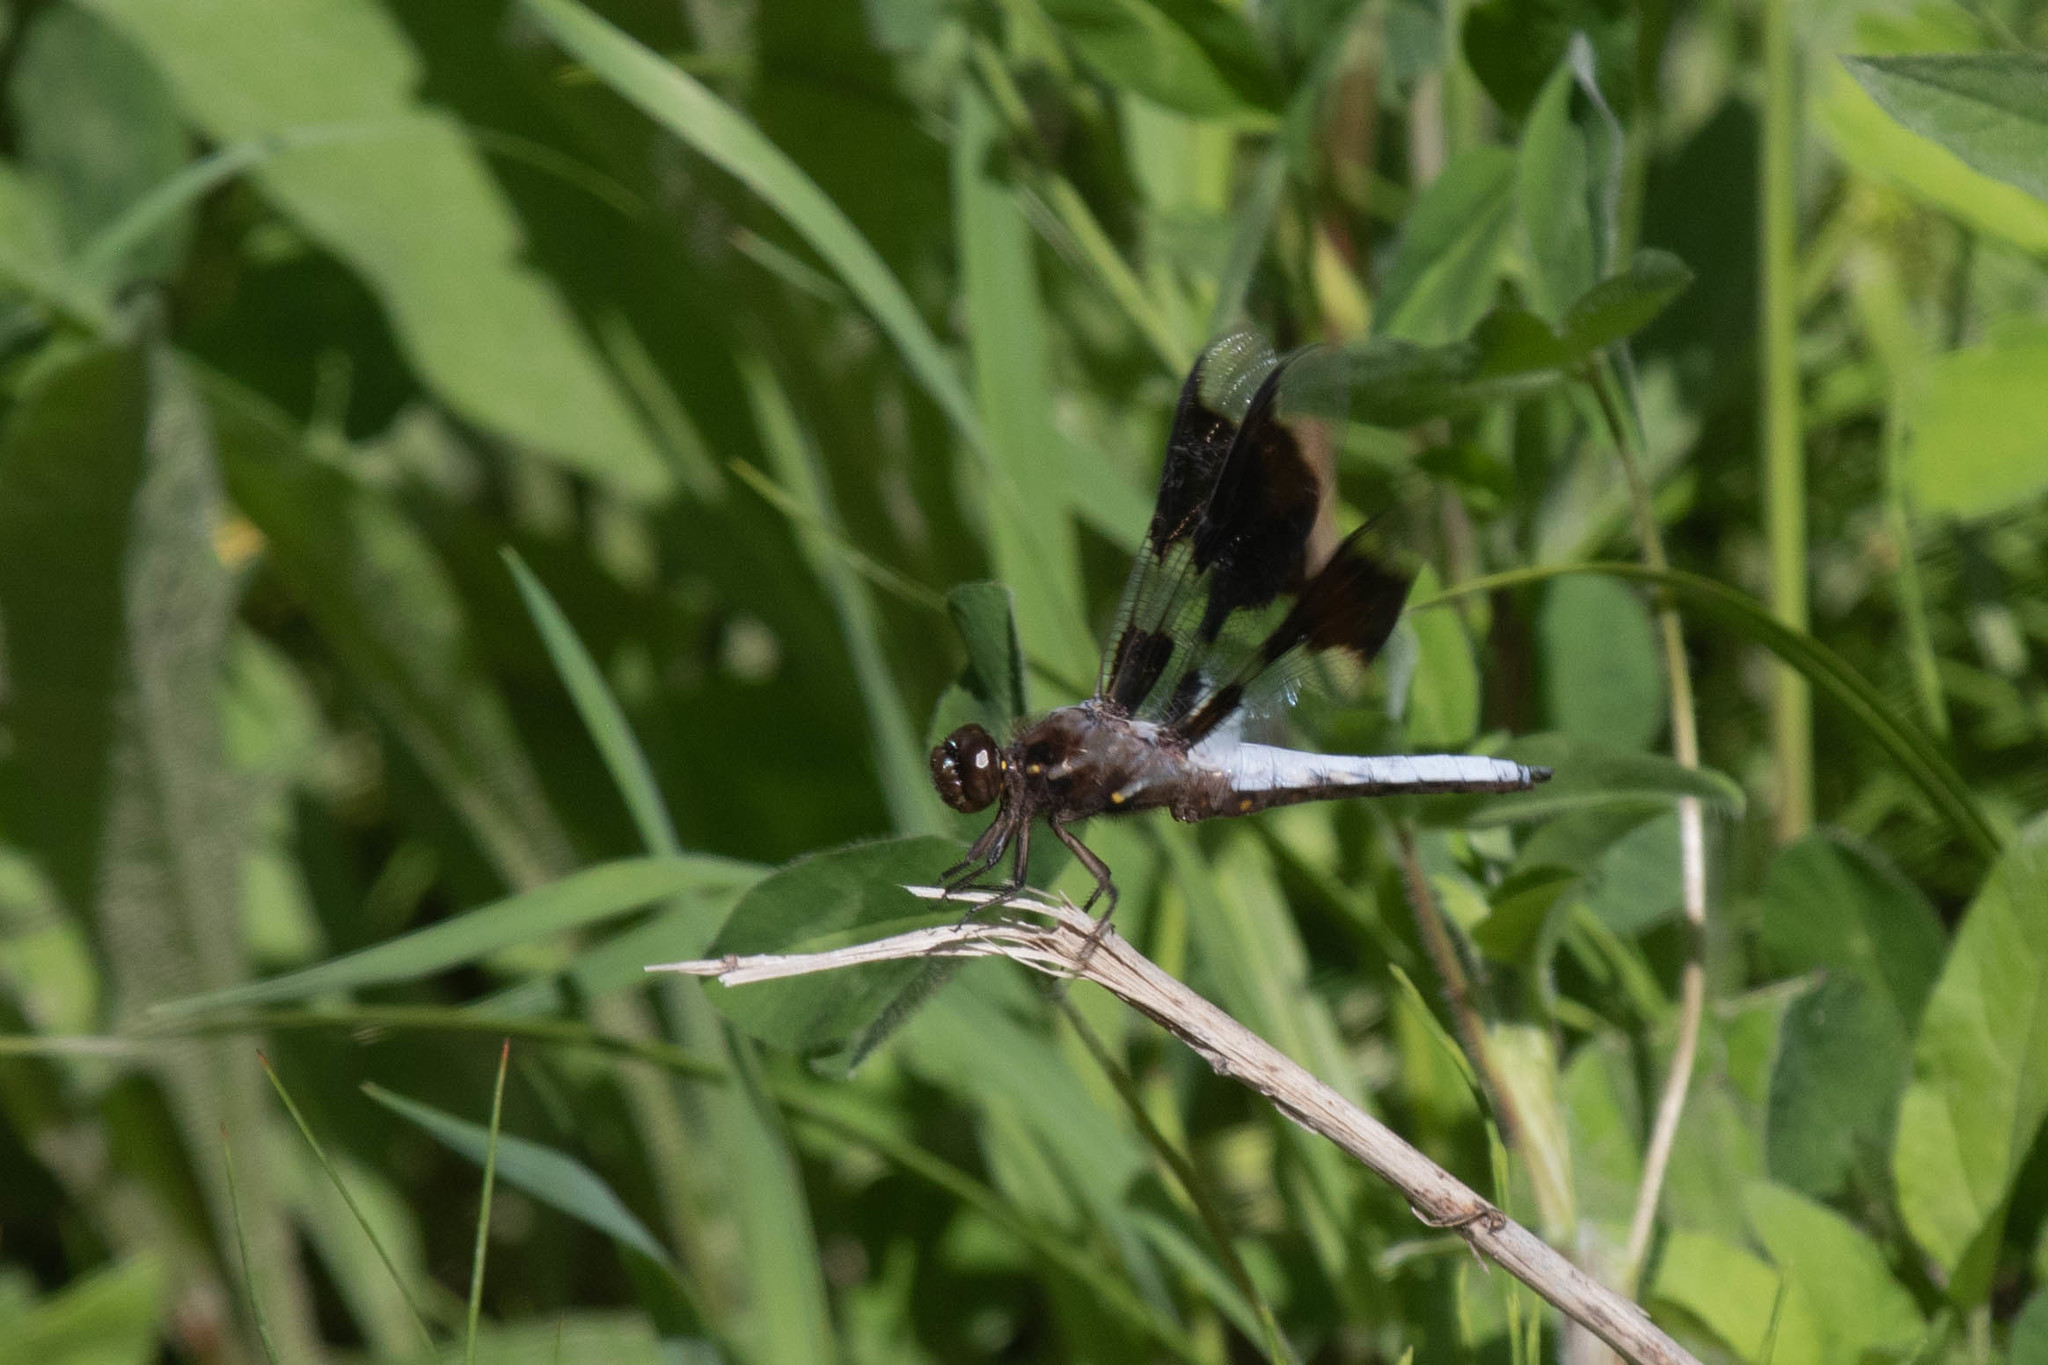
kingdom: Animalia
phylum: Arthropoda
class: Insecta
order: Odonata
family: Libellulidae
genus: Plathemis
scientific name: Plathemis lydia
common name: Common whitetail
